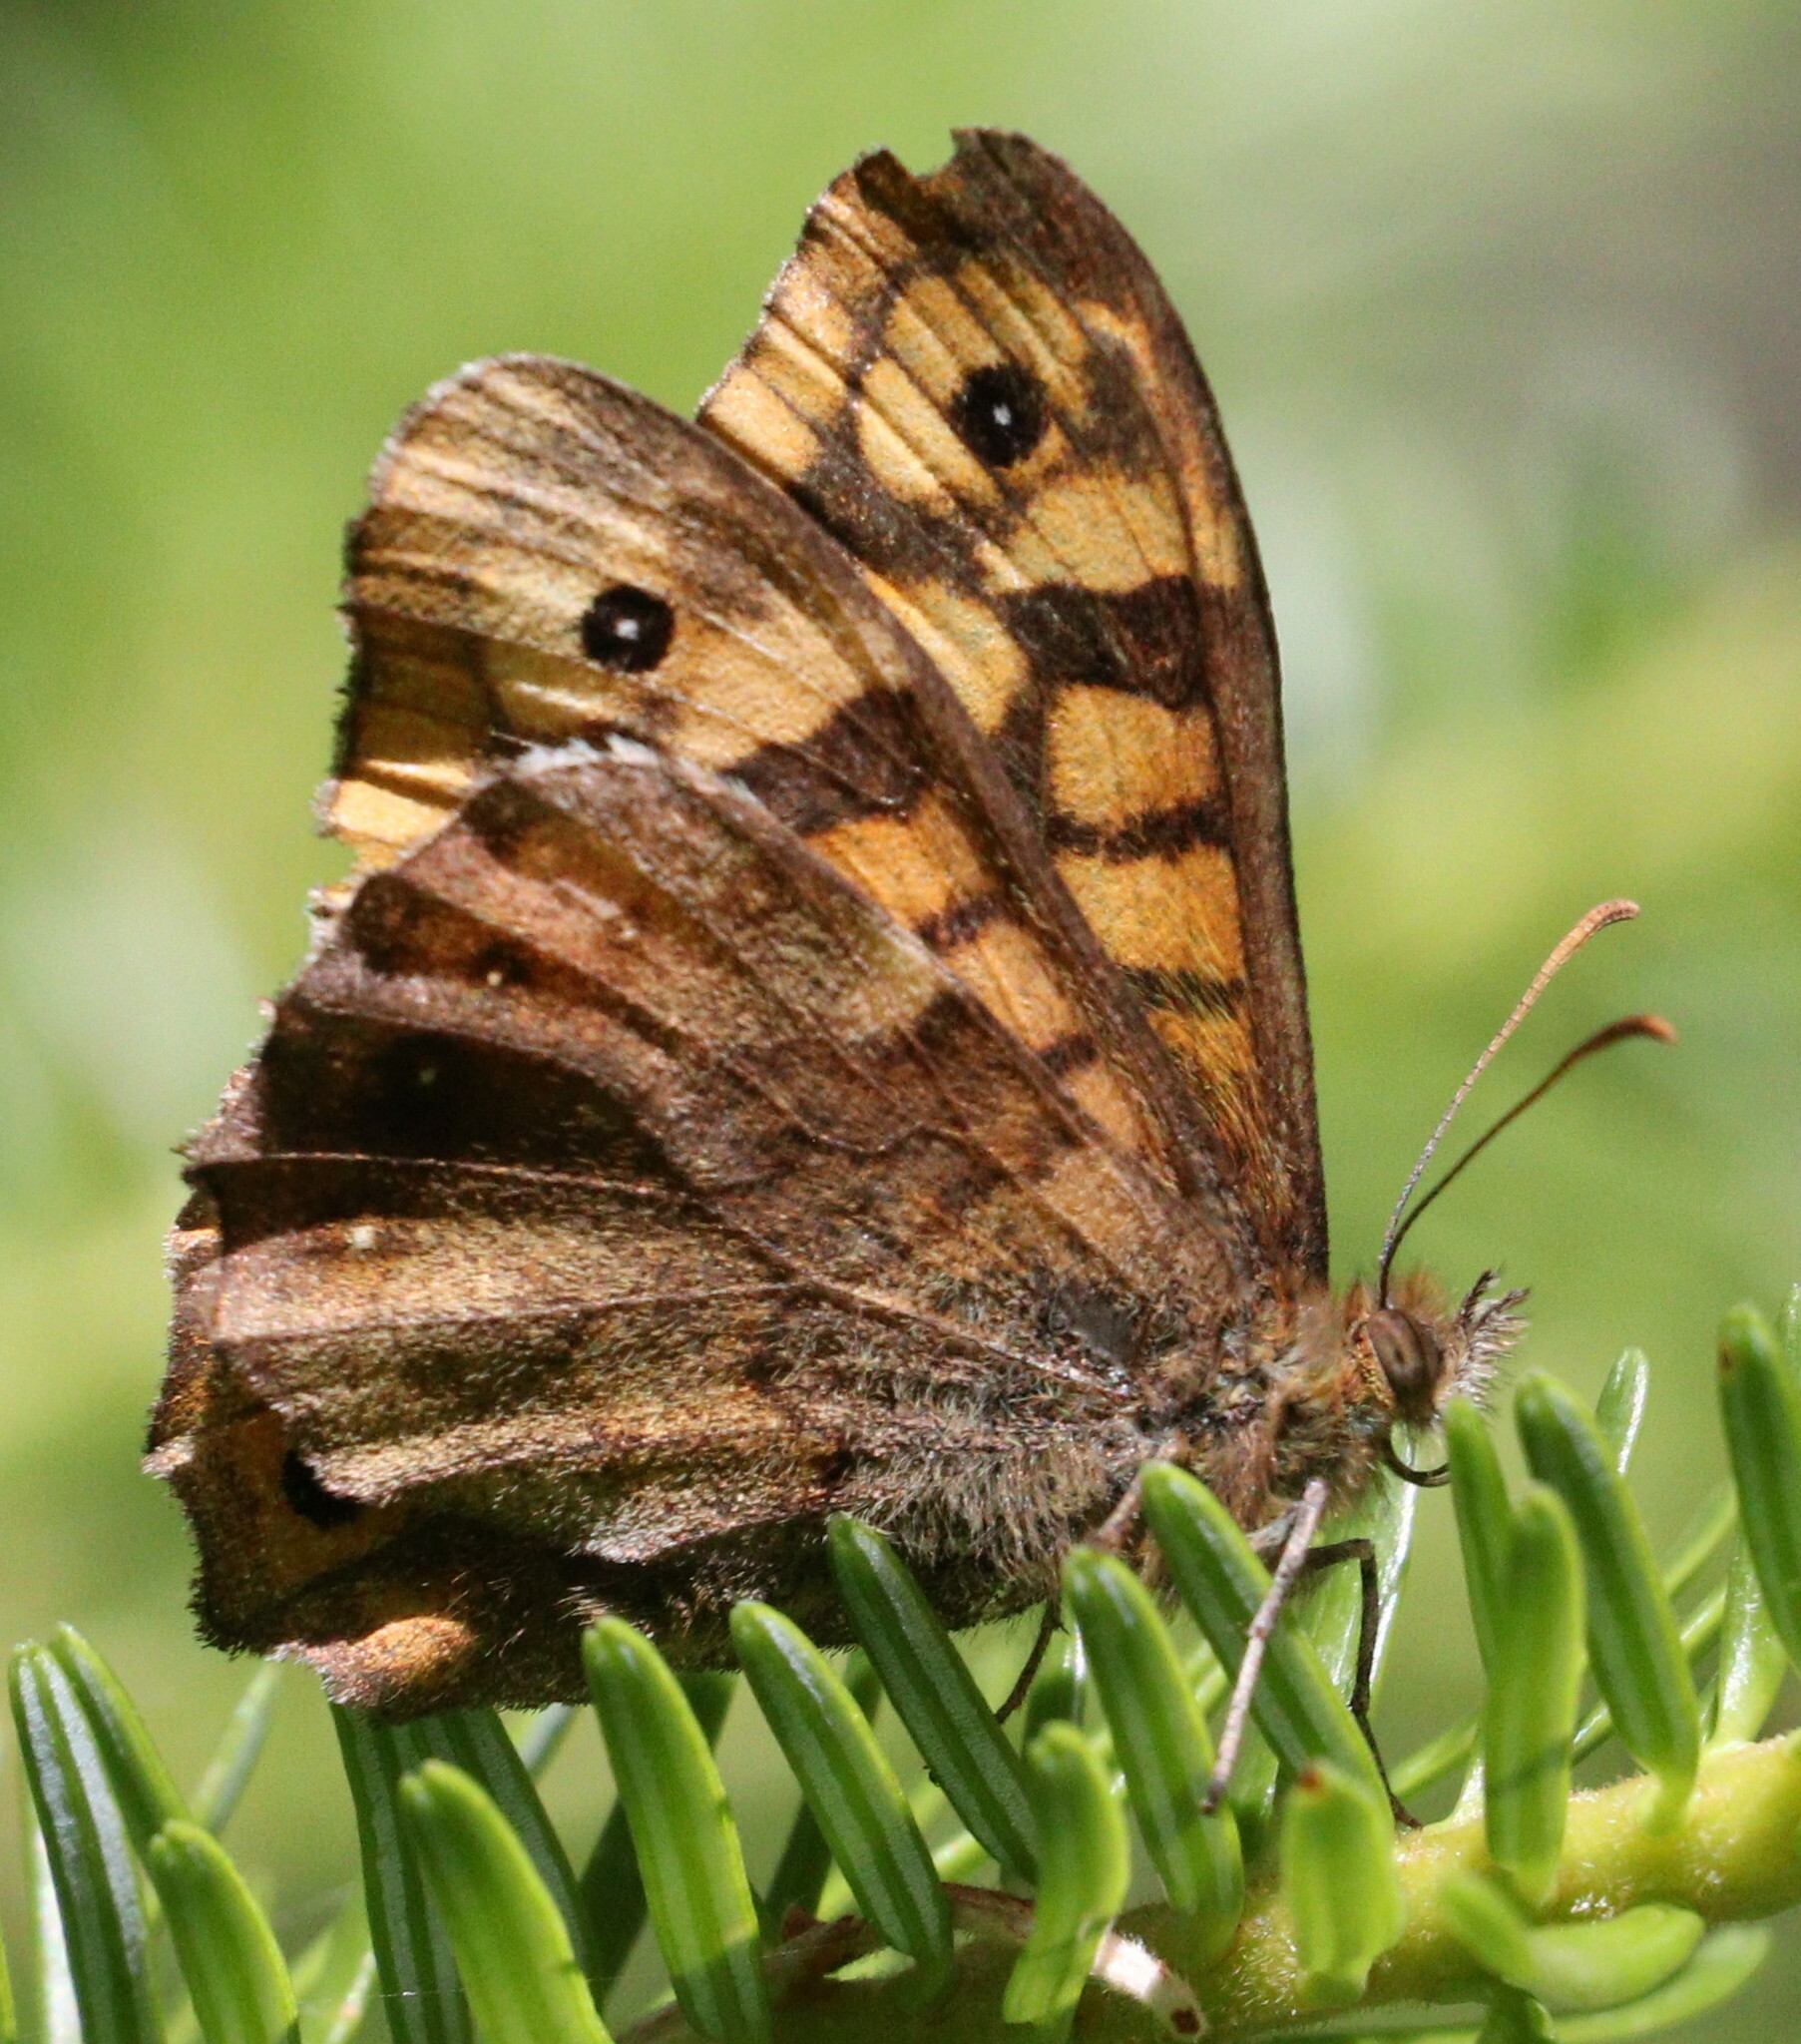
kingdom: Animalia
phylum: Arthropoda
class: Insecta
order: Lepidoptera
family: Nymphalidae
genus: Pararge
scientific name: Pararge aegeria
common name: Speckled wood
